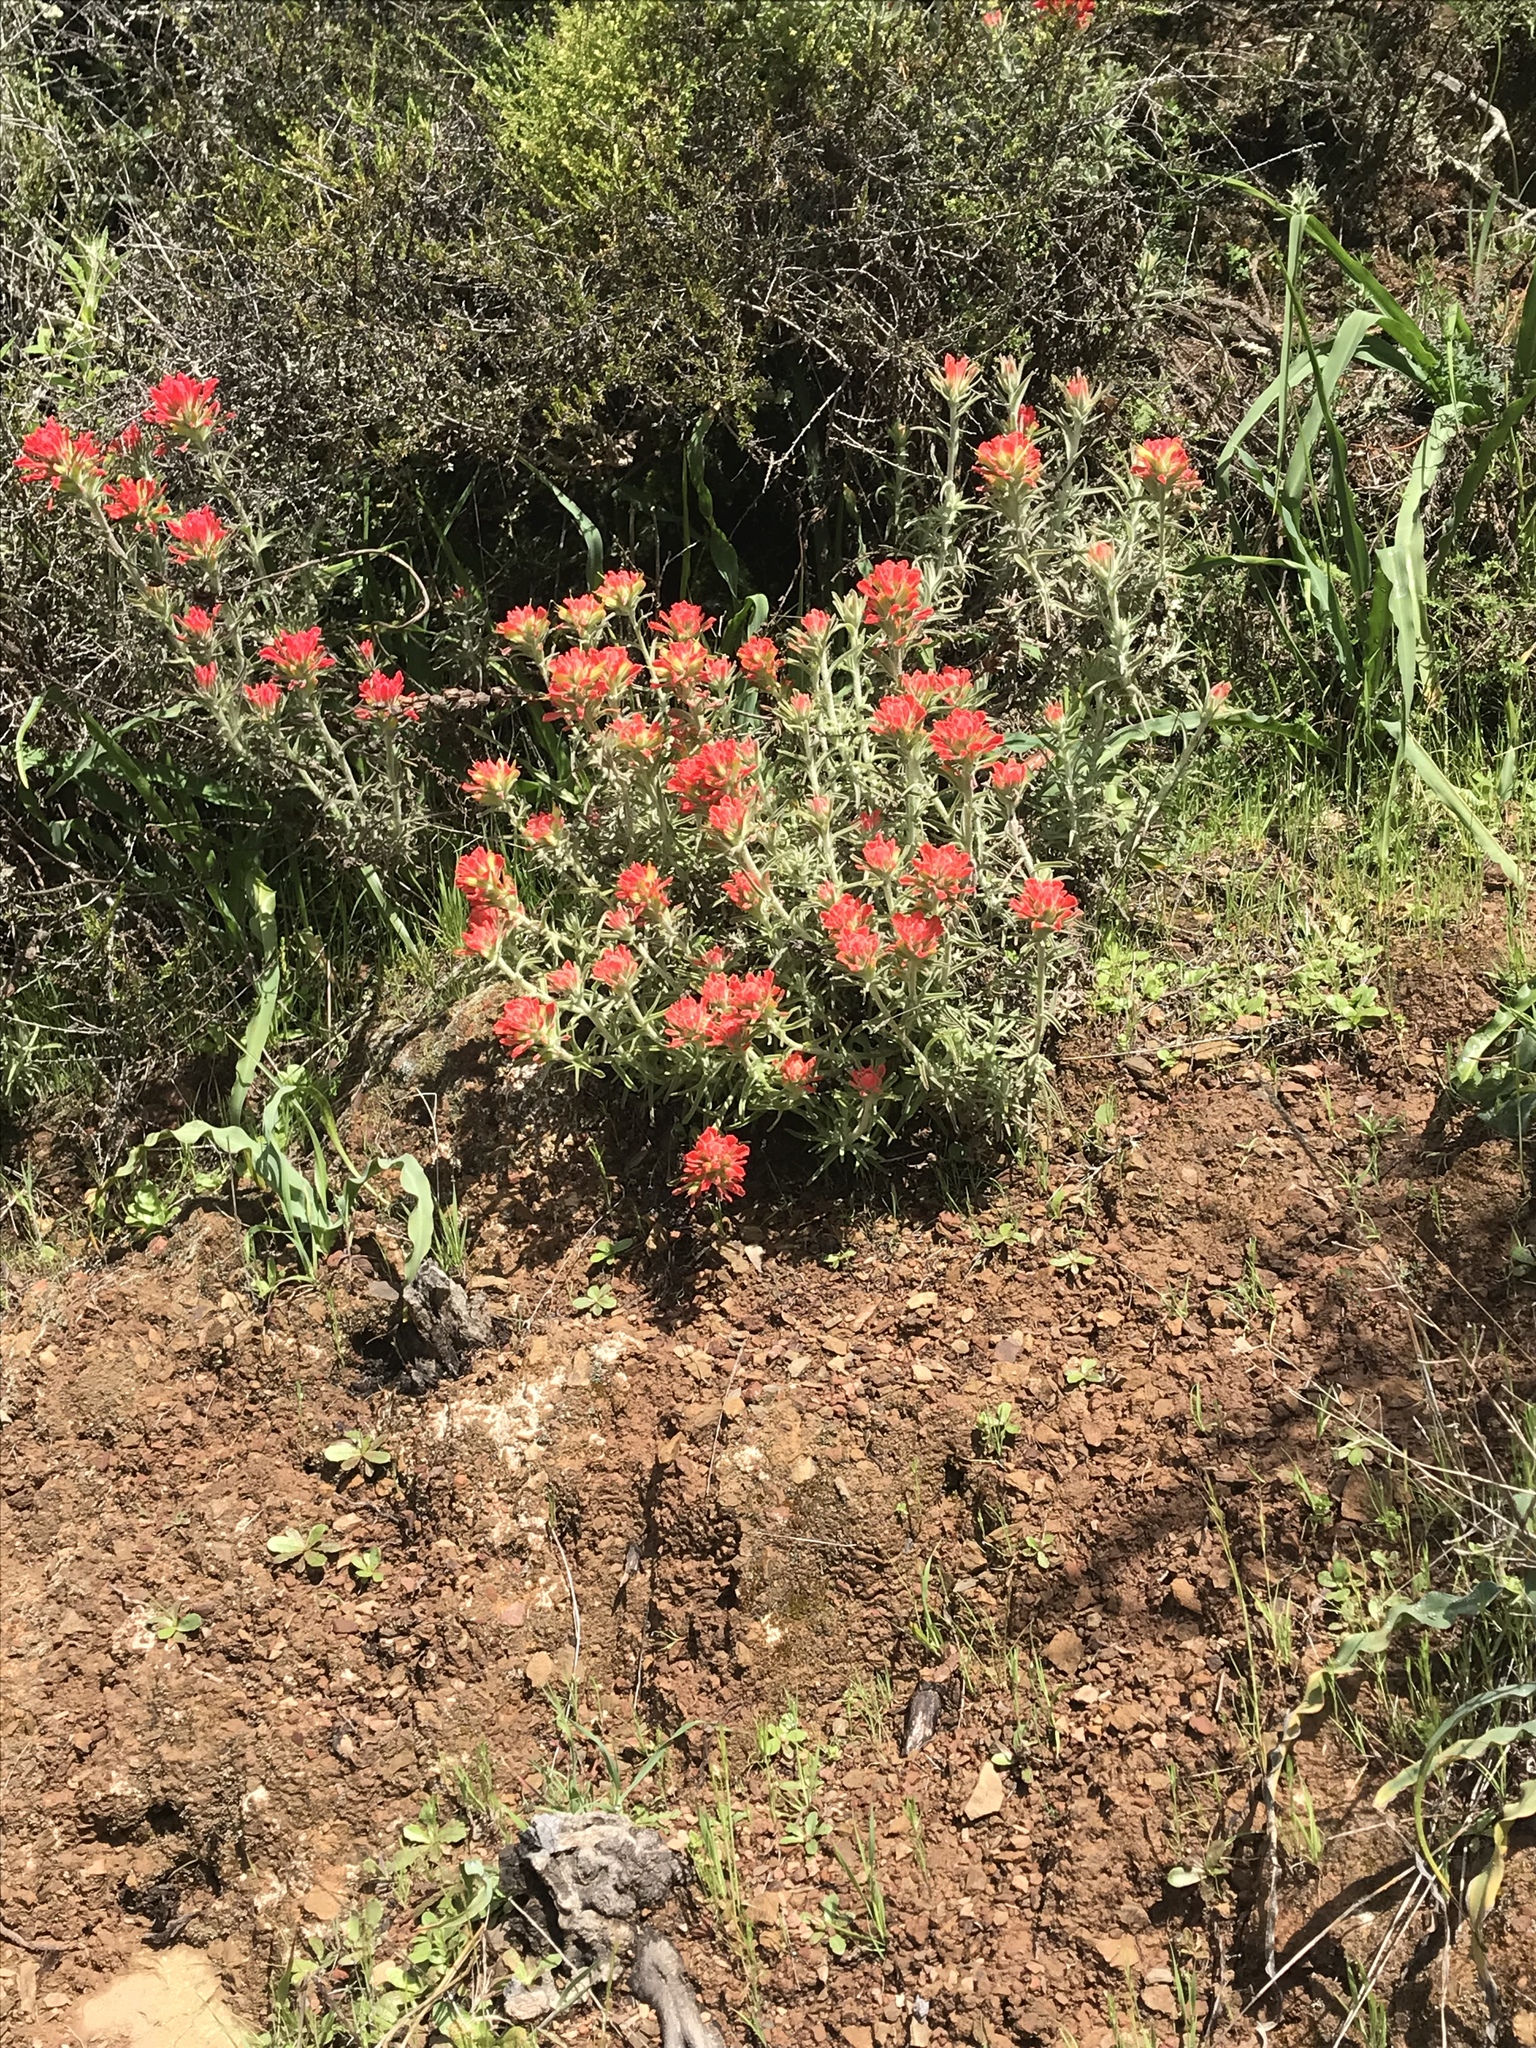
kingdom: Plantae
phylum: Tracheophyta
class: Magnoliopsida
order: Lamiales
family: Orobanchaceae
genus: Castilleja
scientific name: Castilleja foliolosa
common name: Woolly indian paintbrush
